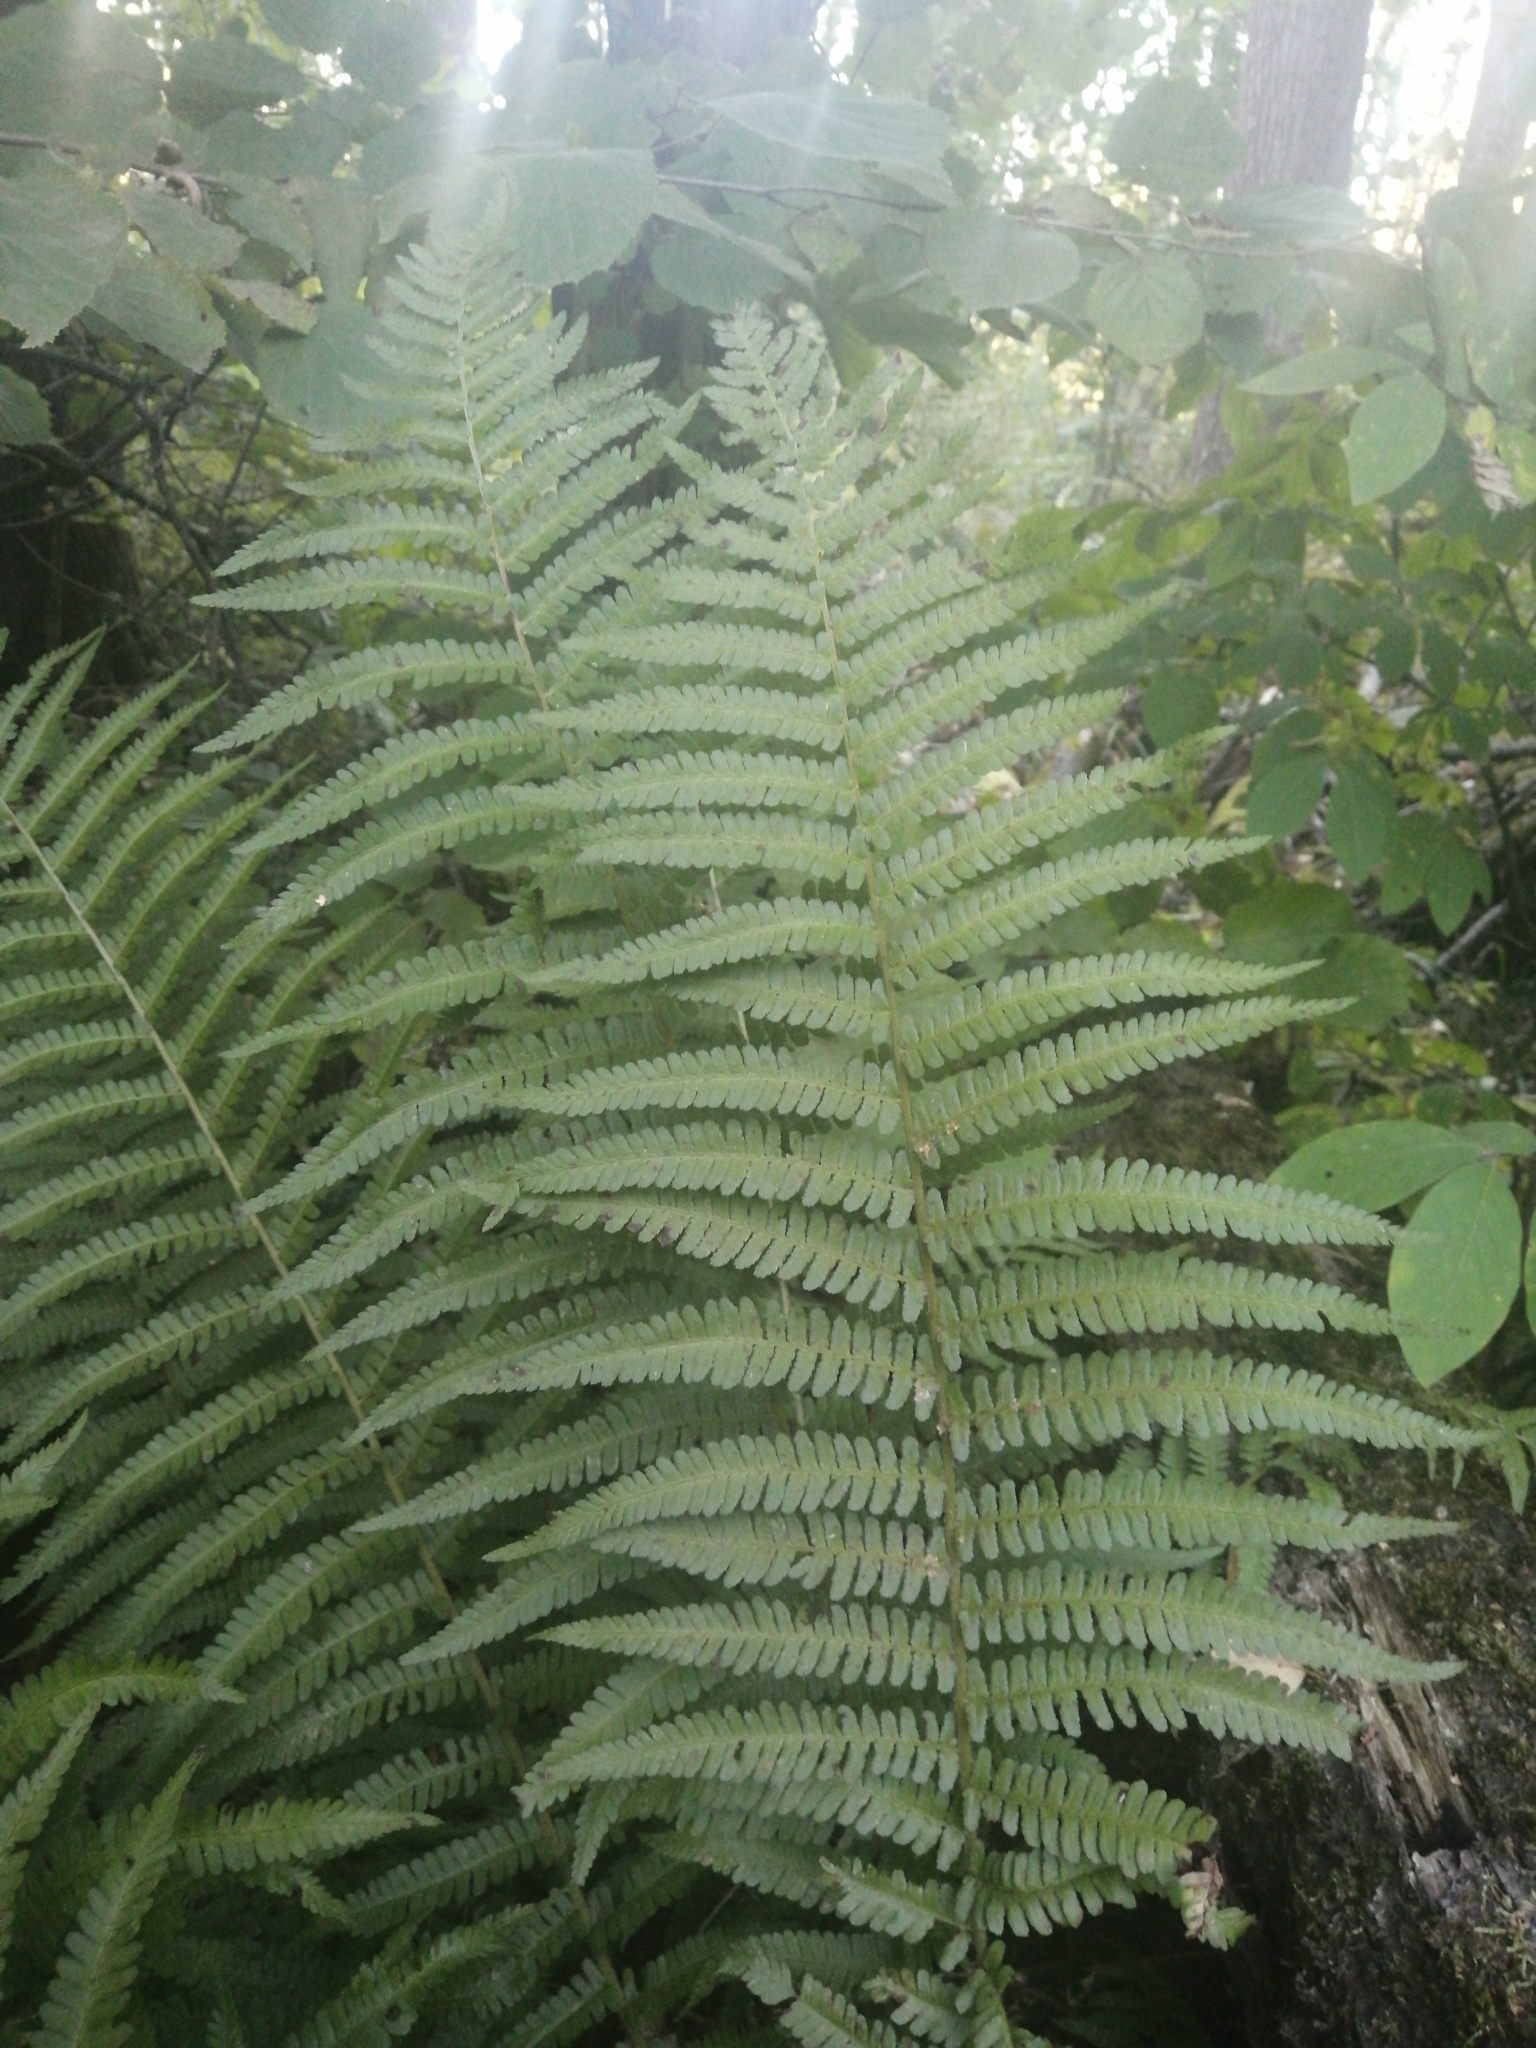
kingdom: Plantae
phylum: Tracheophyta
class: Polypodiopsida
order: Polypodiales
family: Dryopteridaceae
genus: Dryopteris
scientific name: Dryopteris filix-mas
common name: Male fern
